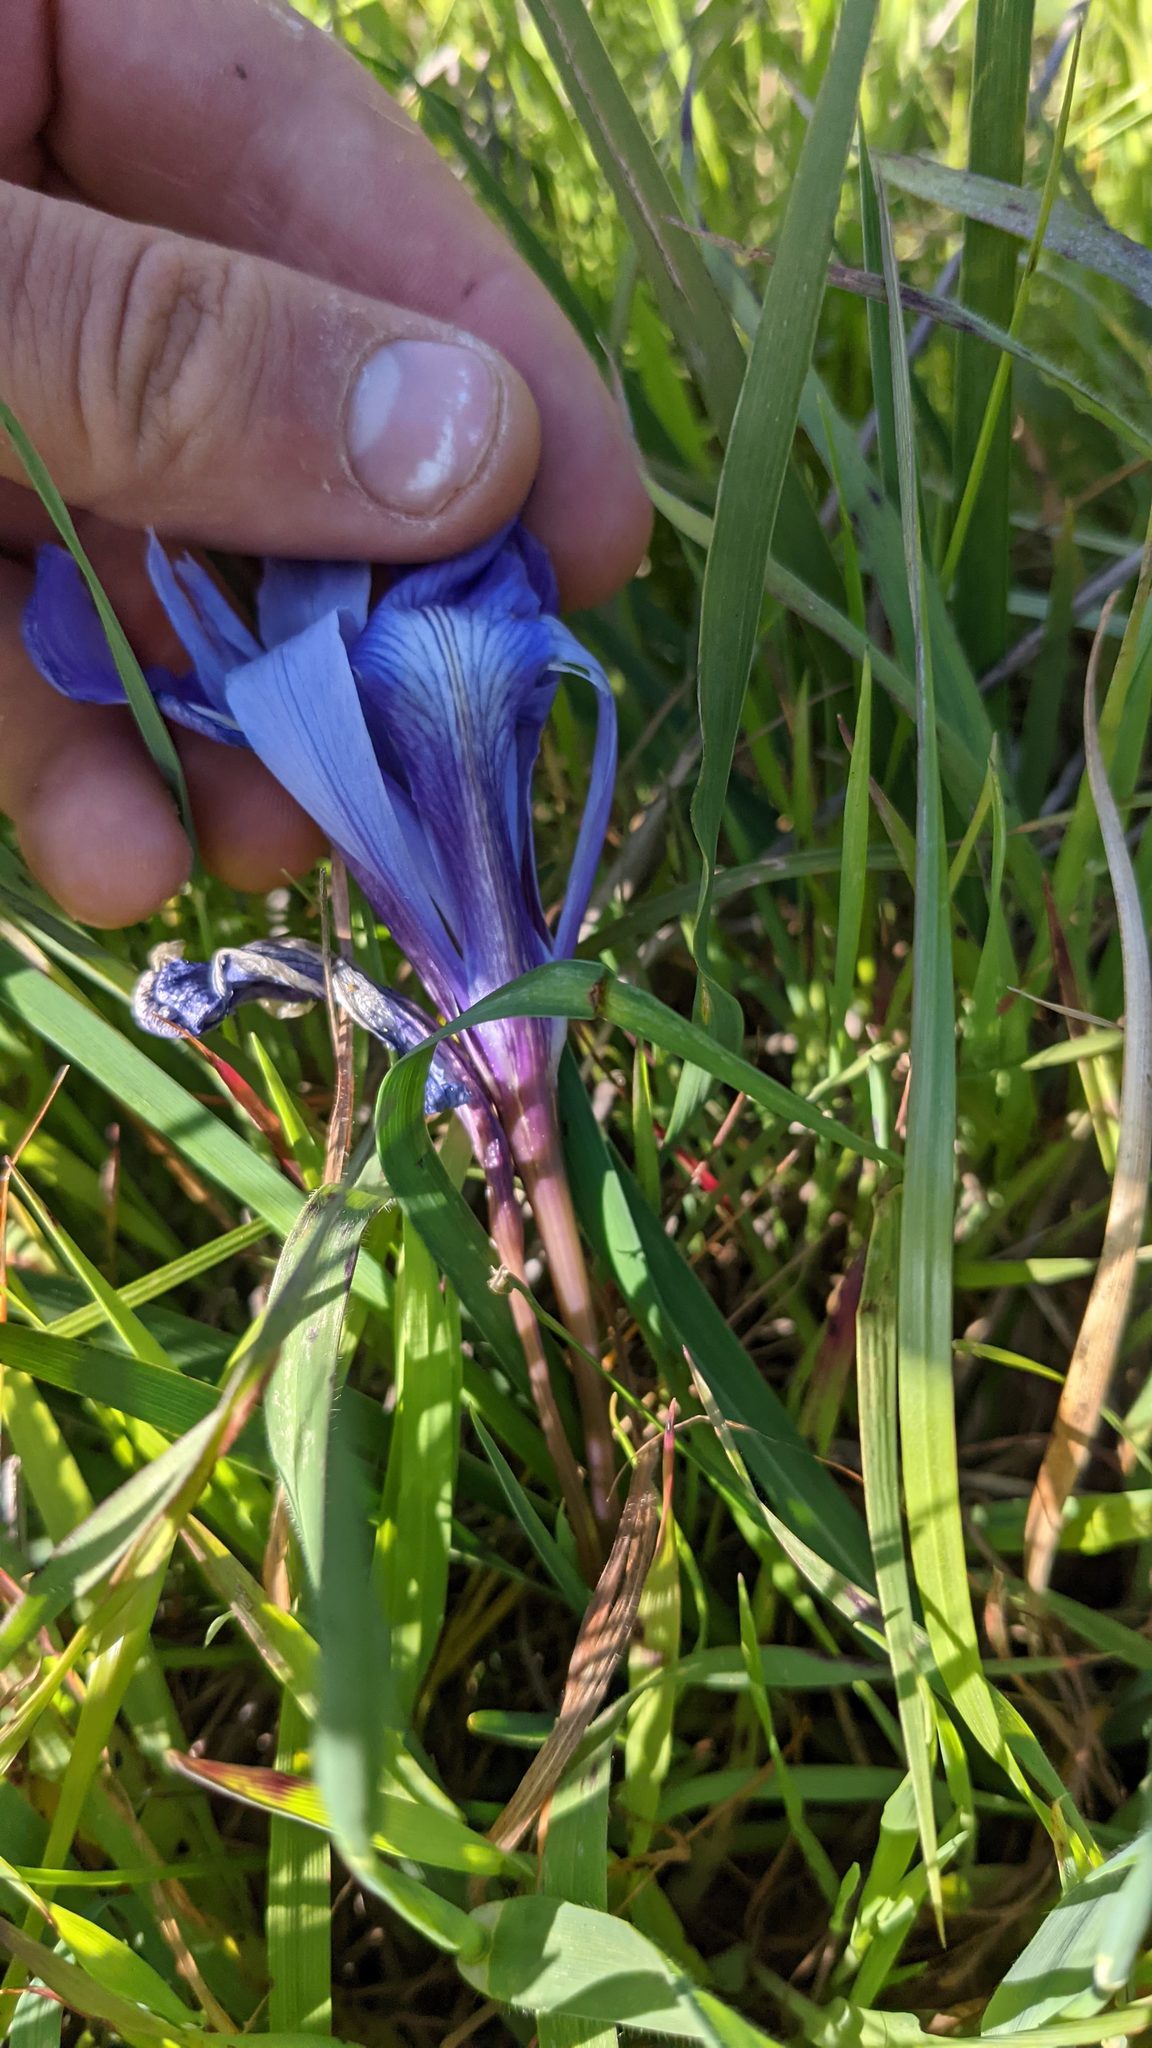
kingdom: Plantae
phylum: Tracheophyta
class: Liliopsida
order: Asparagales
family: Iridaceae
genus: Iris
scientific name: Iris macrosiphon
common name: Ground iris
